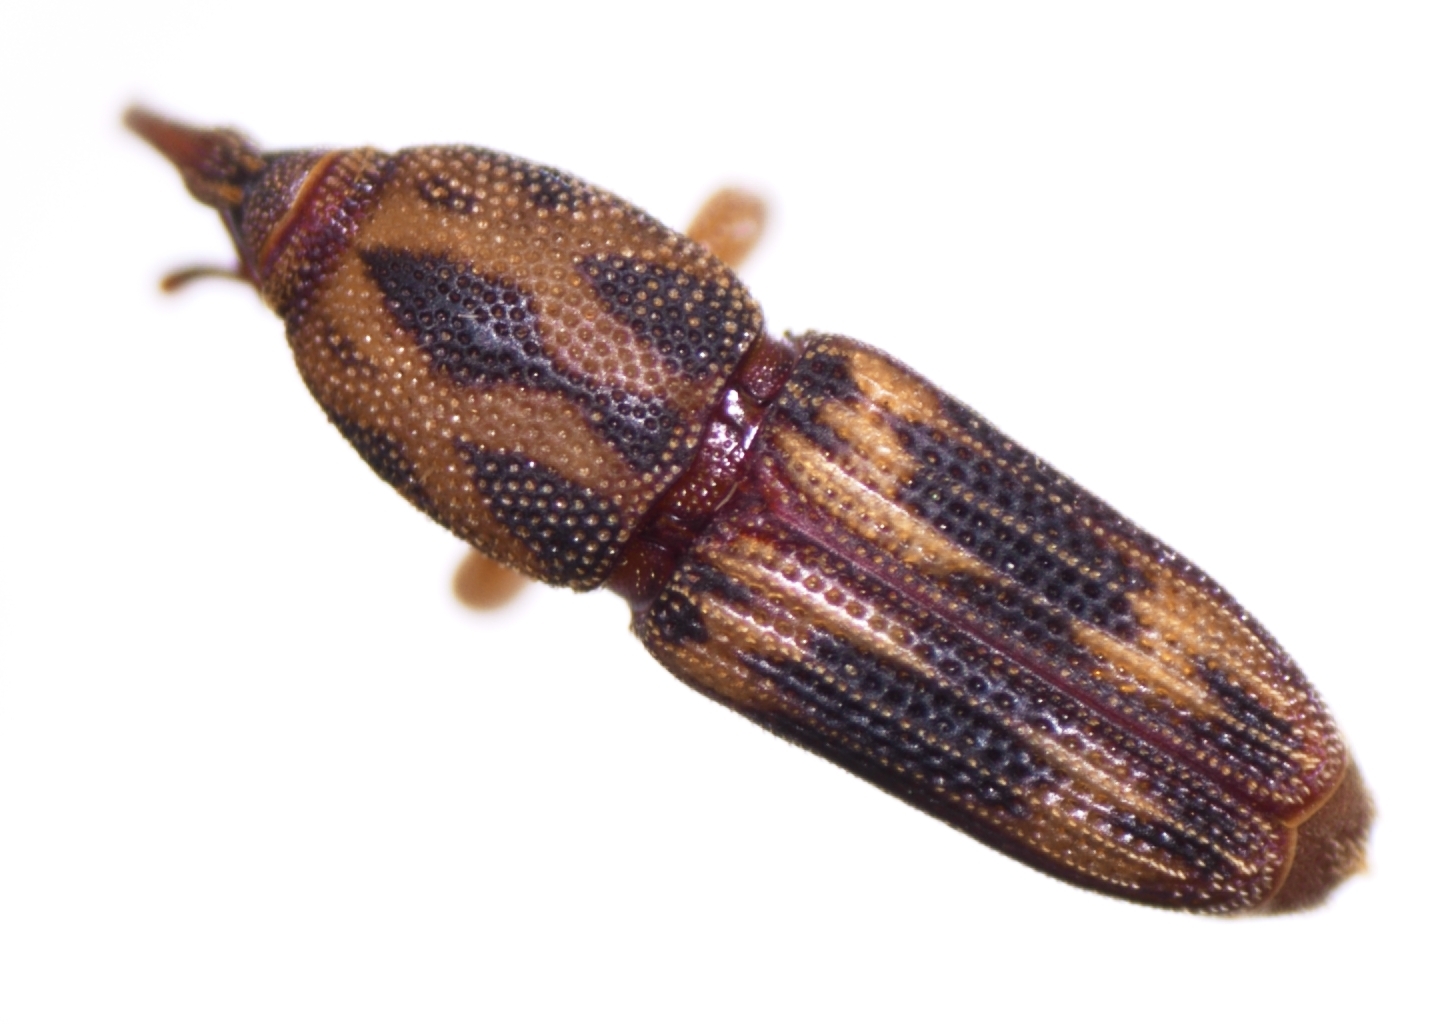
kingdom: Animalia
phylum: Arthropoda
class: Insecta
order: Coleoptera
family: Dryophthoridae
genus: Diocalandra
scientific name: Diocalandra taitensis
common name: Weevil
